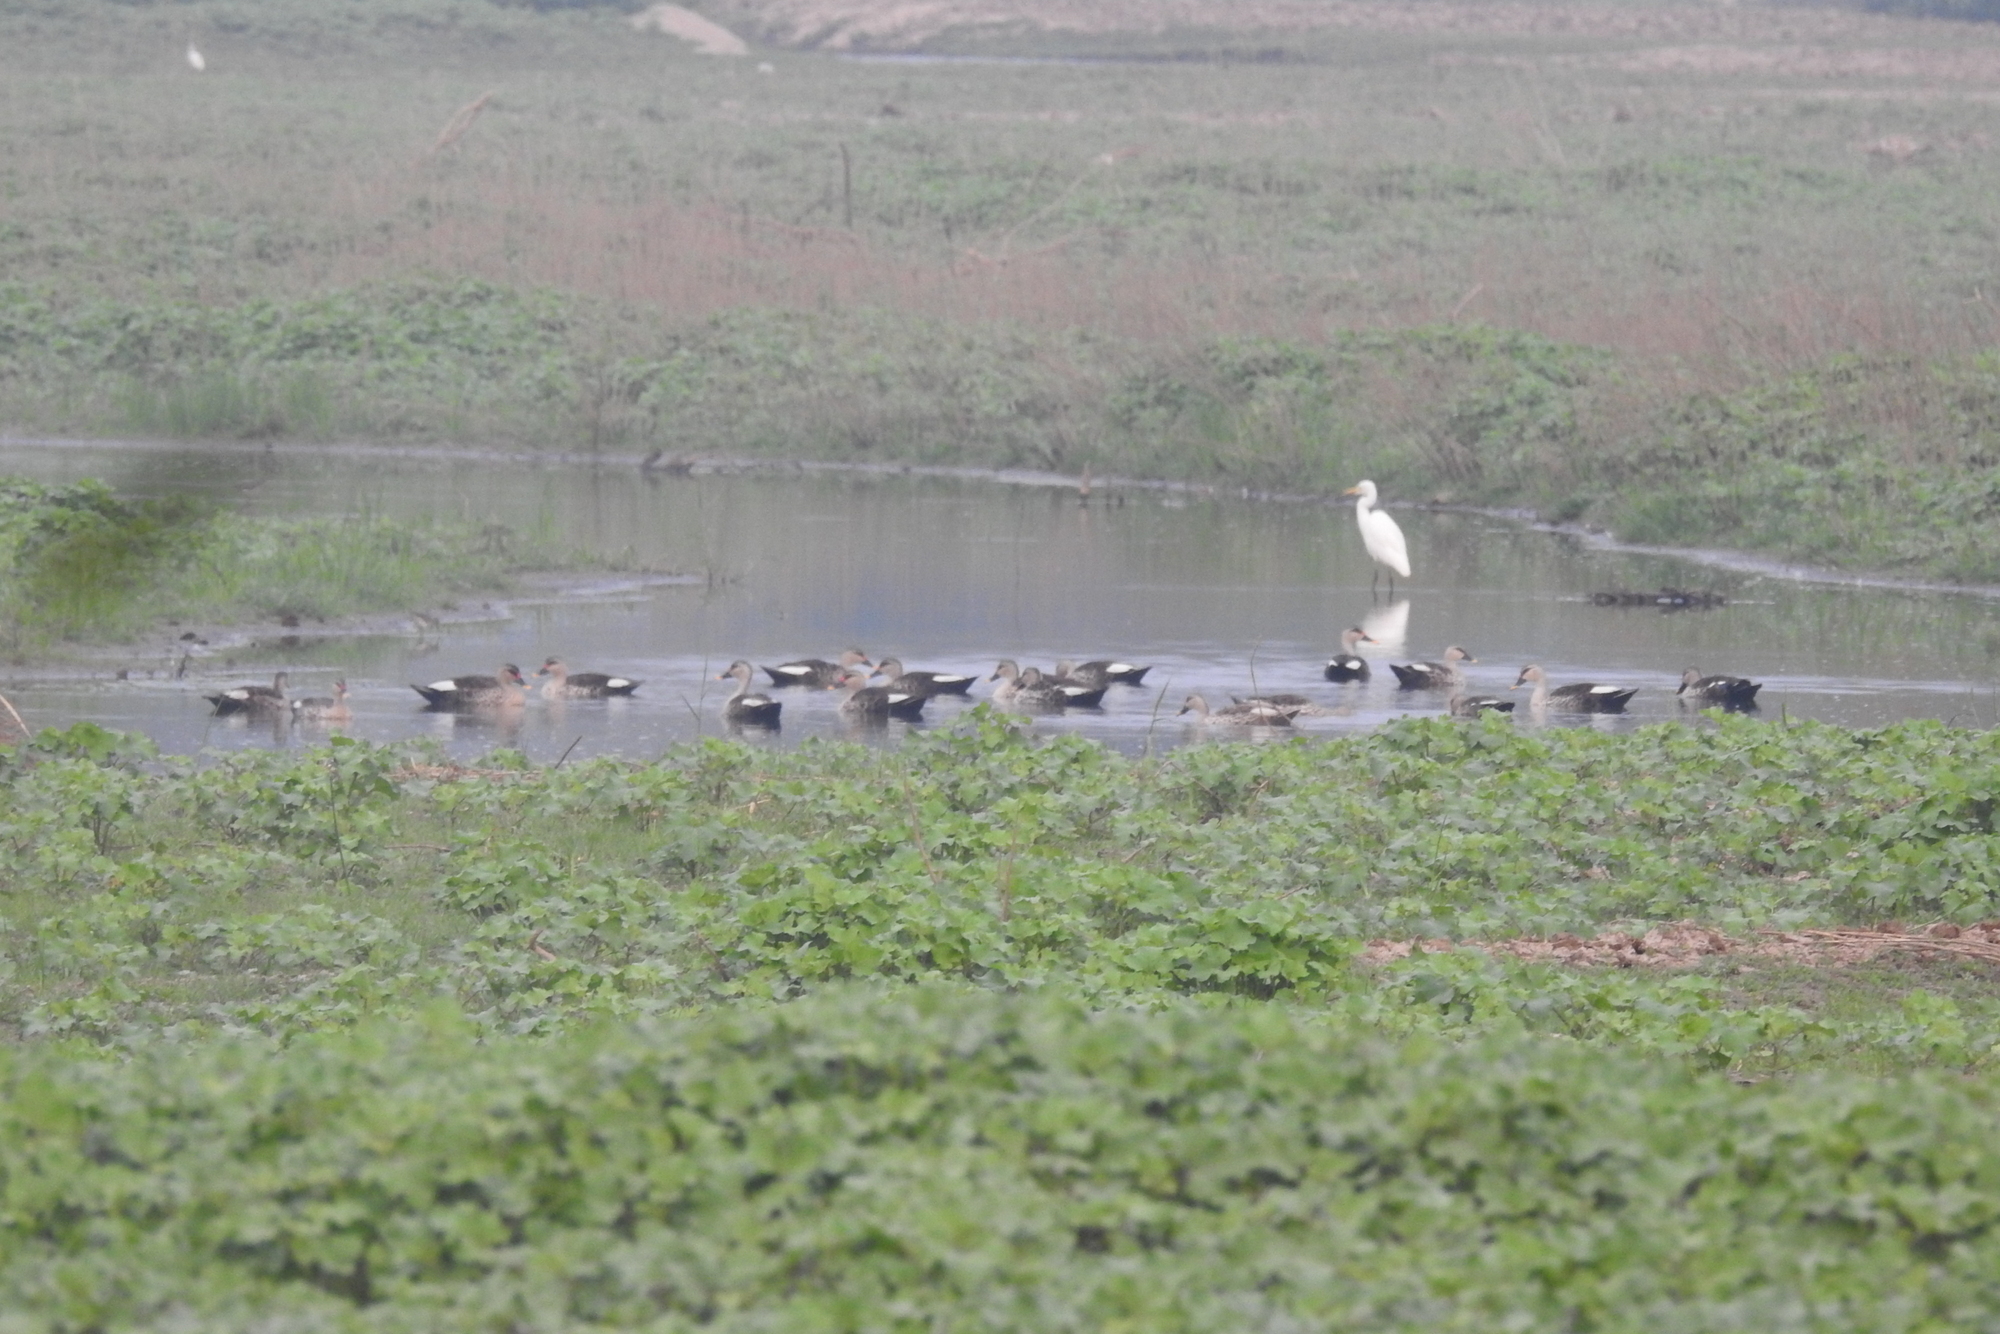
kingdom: Animalia
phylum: Chordata
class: Aves
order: Anseriformes
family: Anatidae
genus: Anas
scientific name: Anas poecilorhyncha
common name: Indian spot-billed duck
